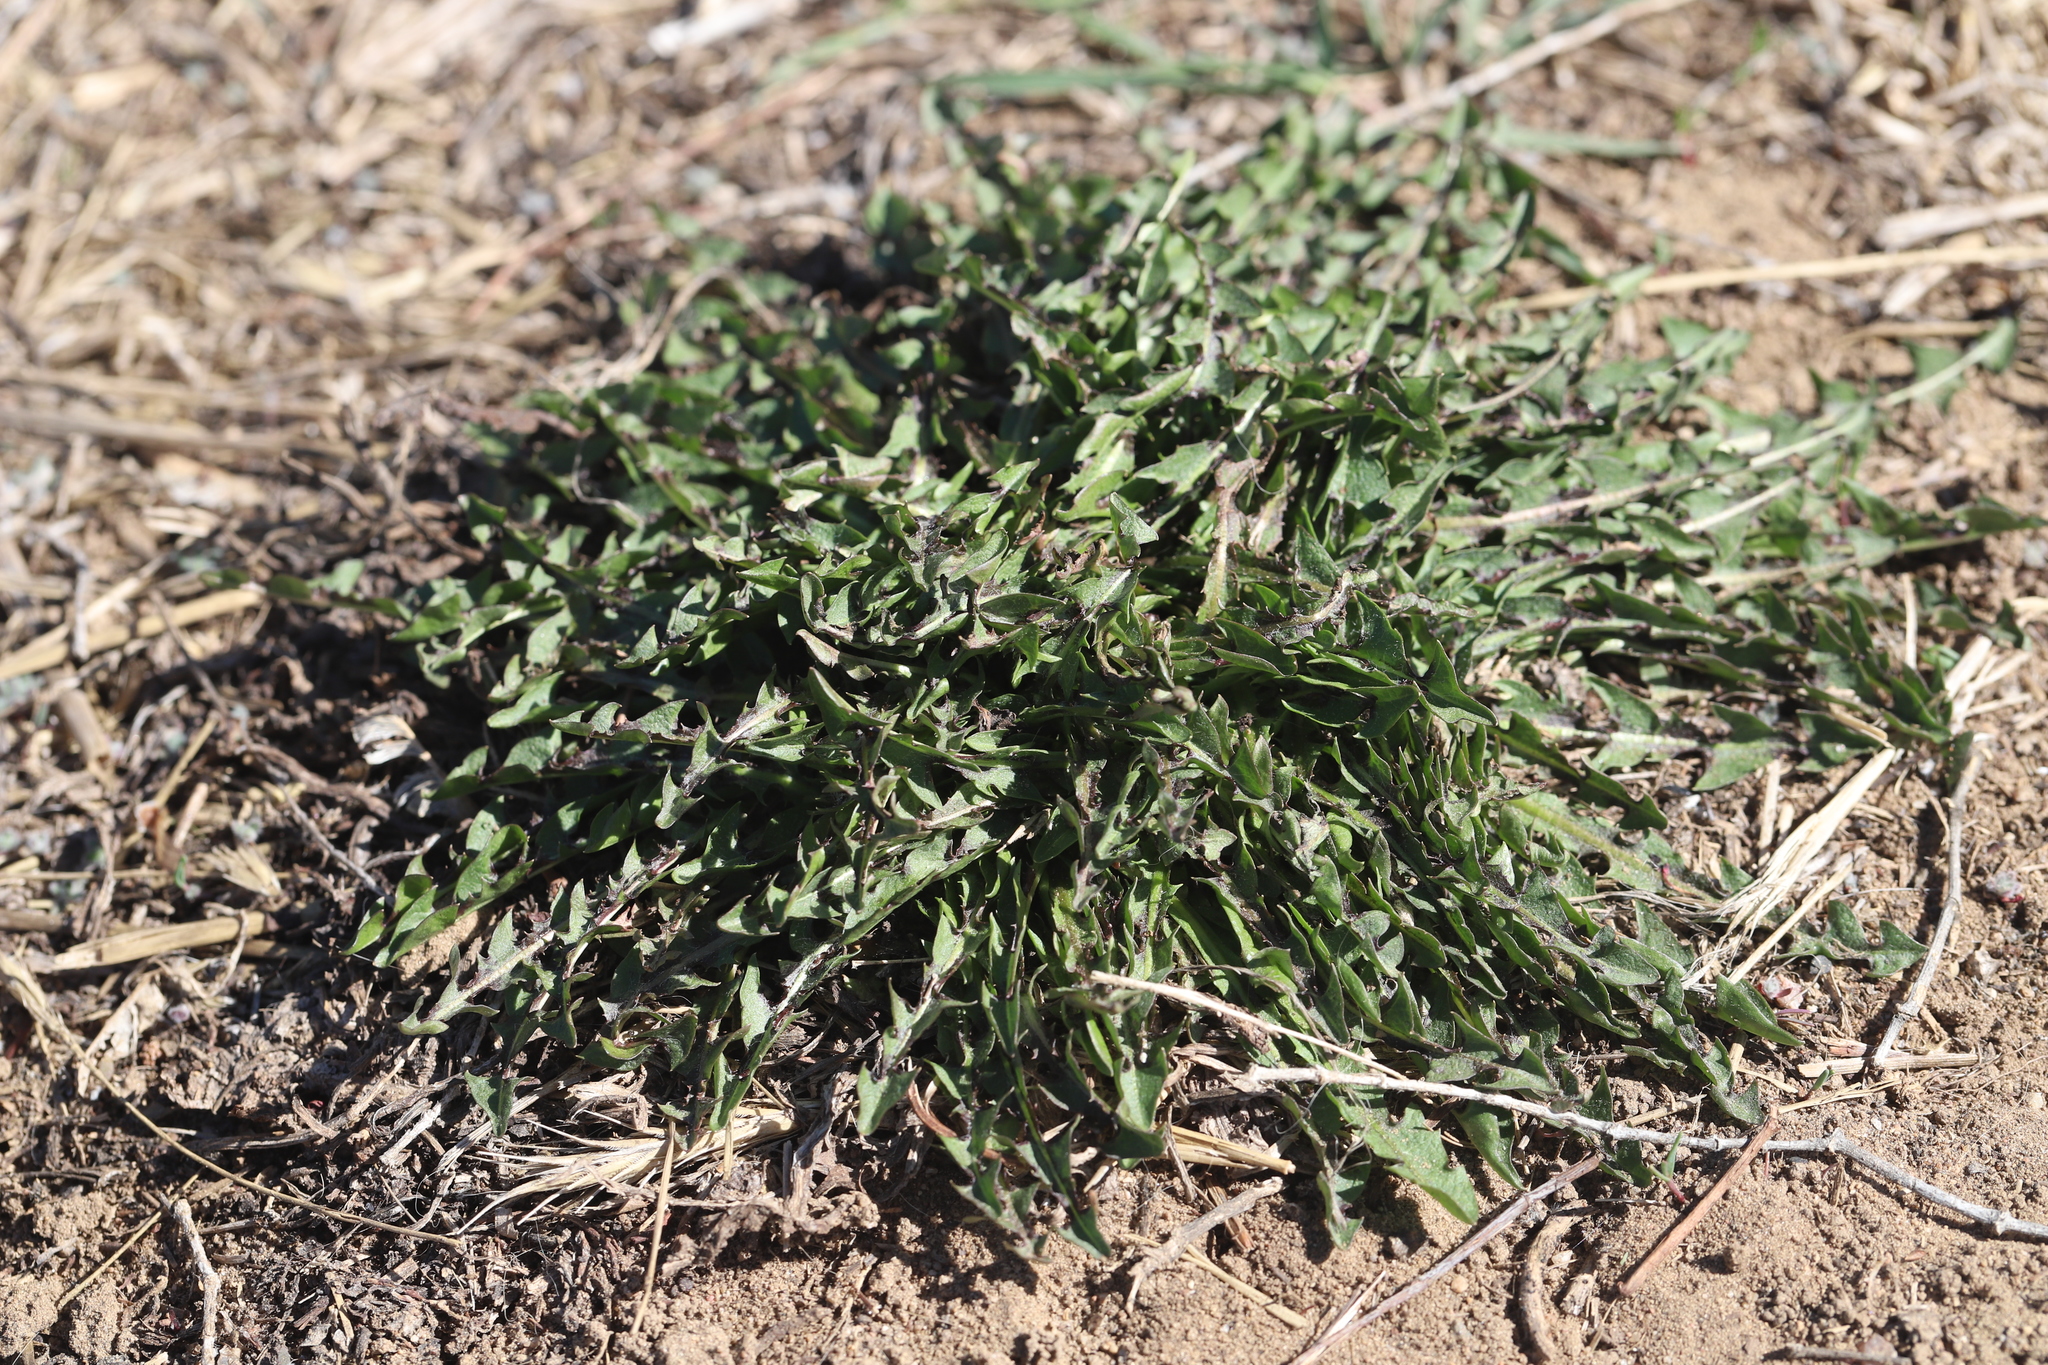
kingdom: Plantae
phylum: Tracheophyta
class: Magnoliopsida
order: Asterales
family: Asteraceae
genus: Taraxacum
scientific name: Taraxacum officinale
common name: Common dandelion
